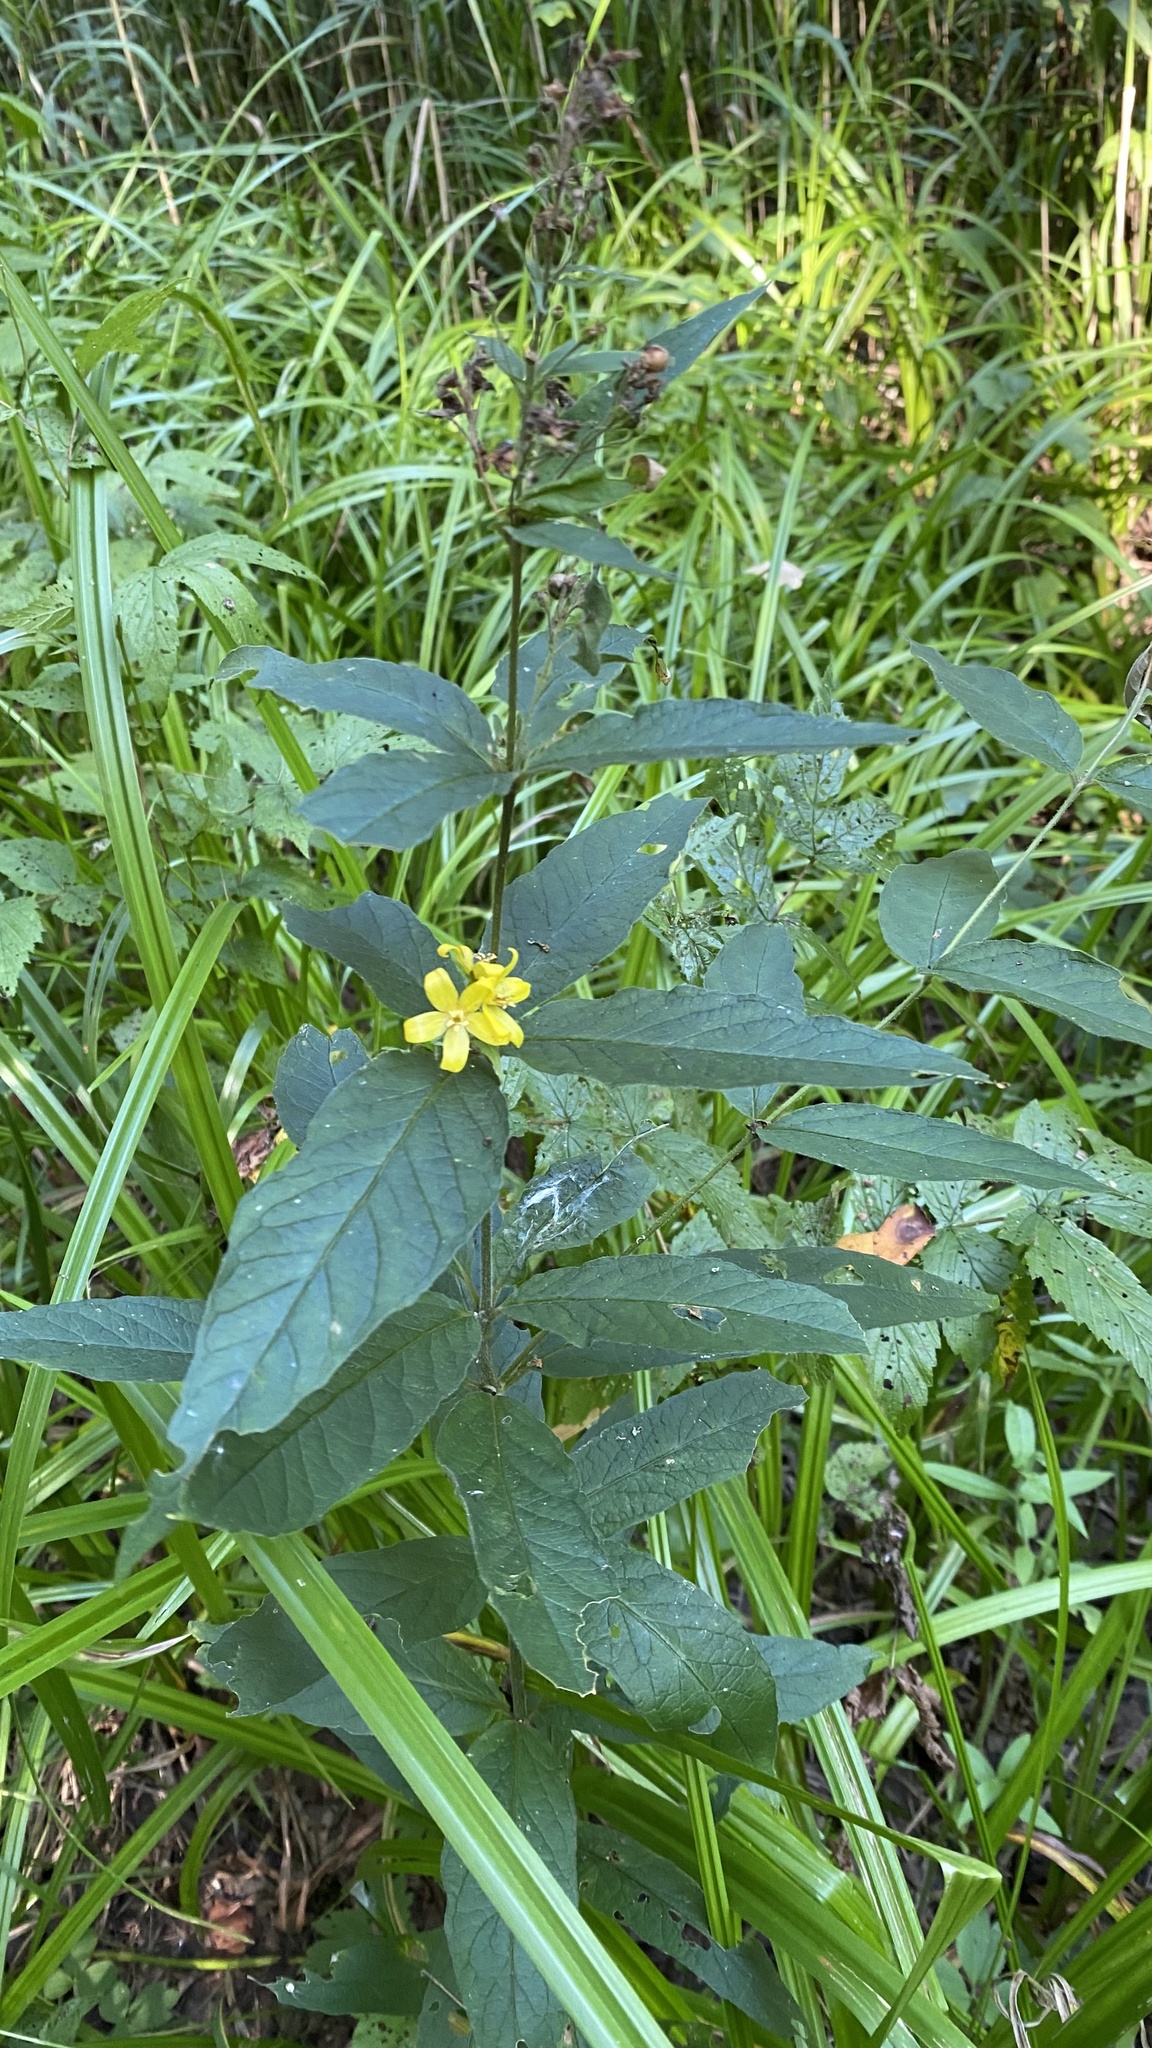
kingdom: Plantae
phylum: Tracheophyta
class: Magnoliopsida
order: Ericales
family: Primulaceae
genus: Lysimachia
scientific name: Lysimachia vulgaris
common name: Yellow loosestrife
